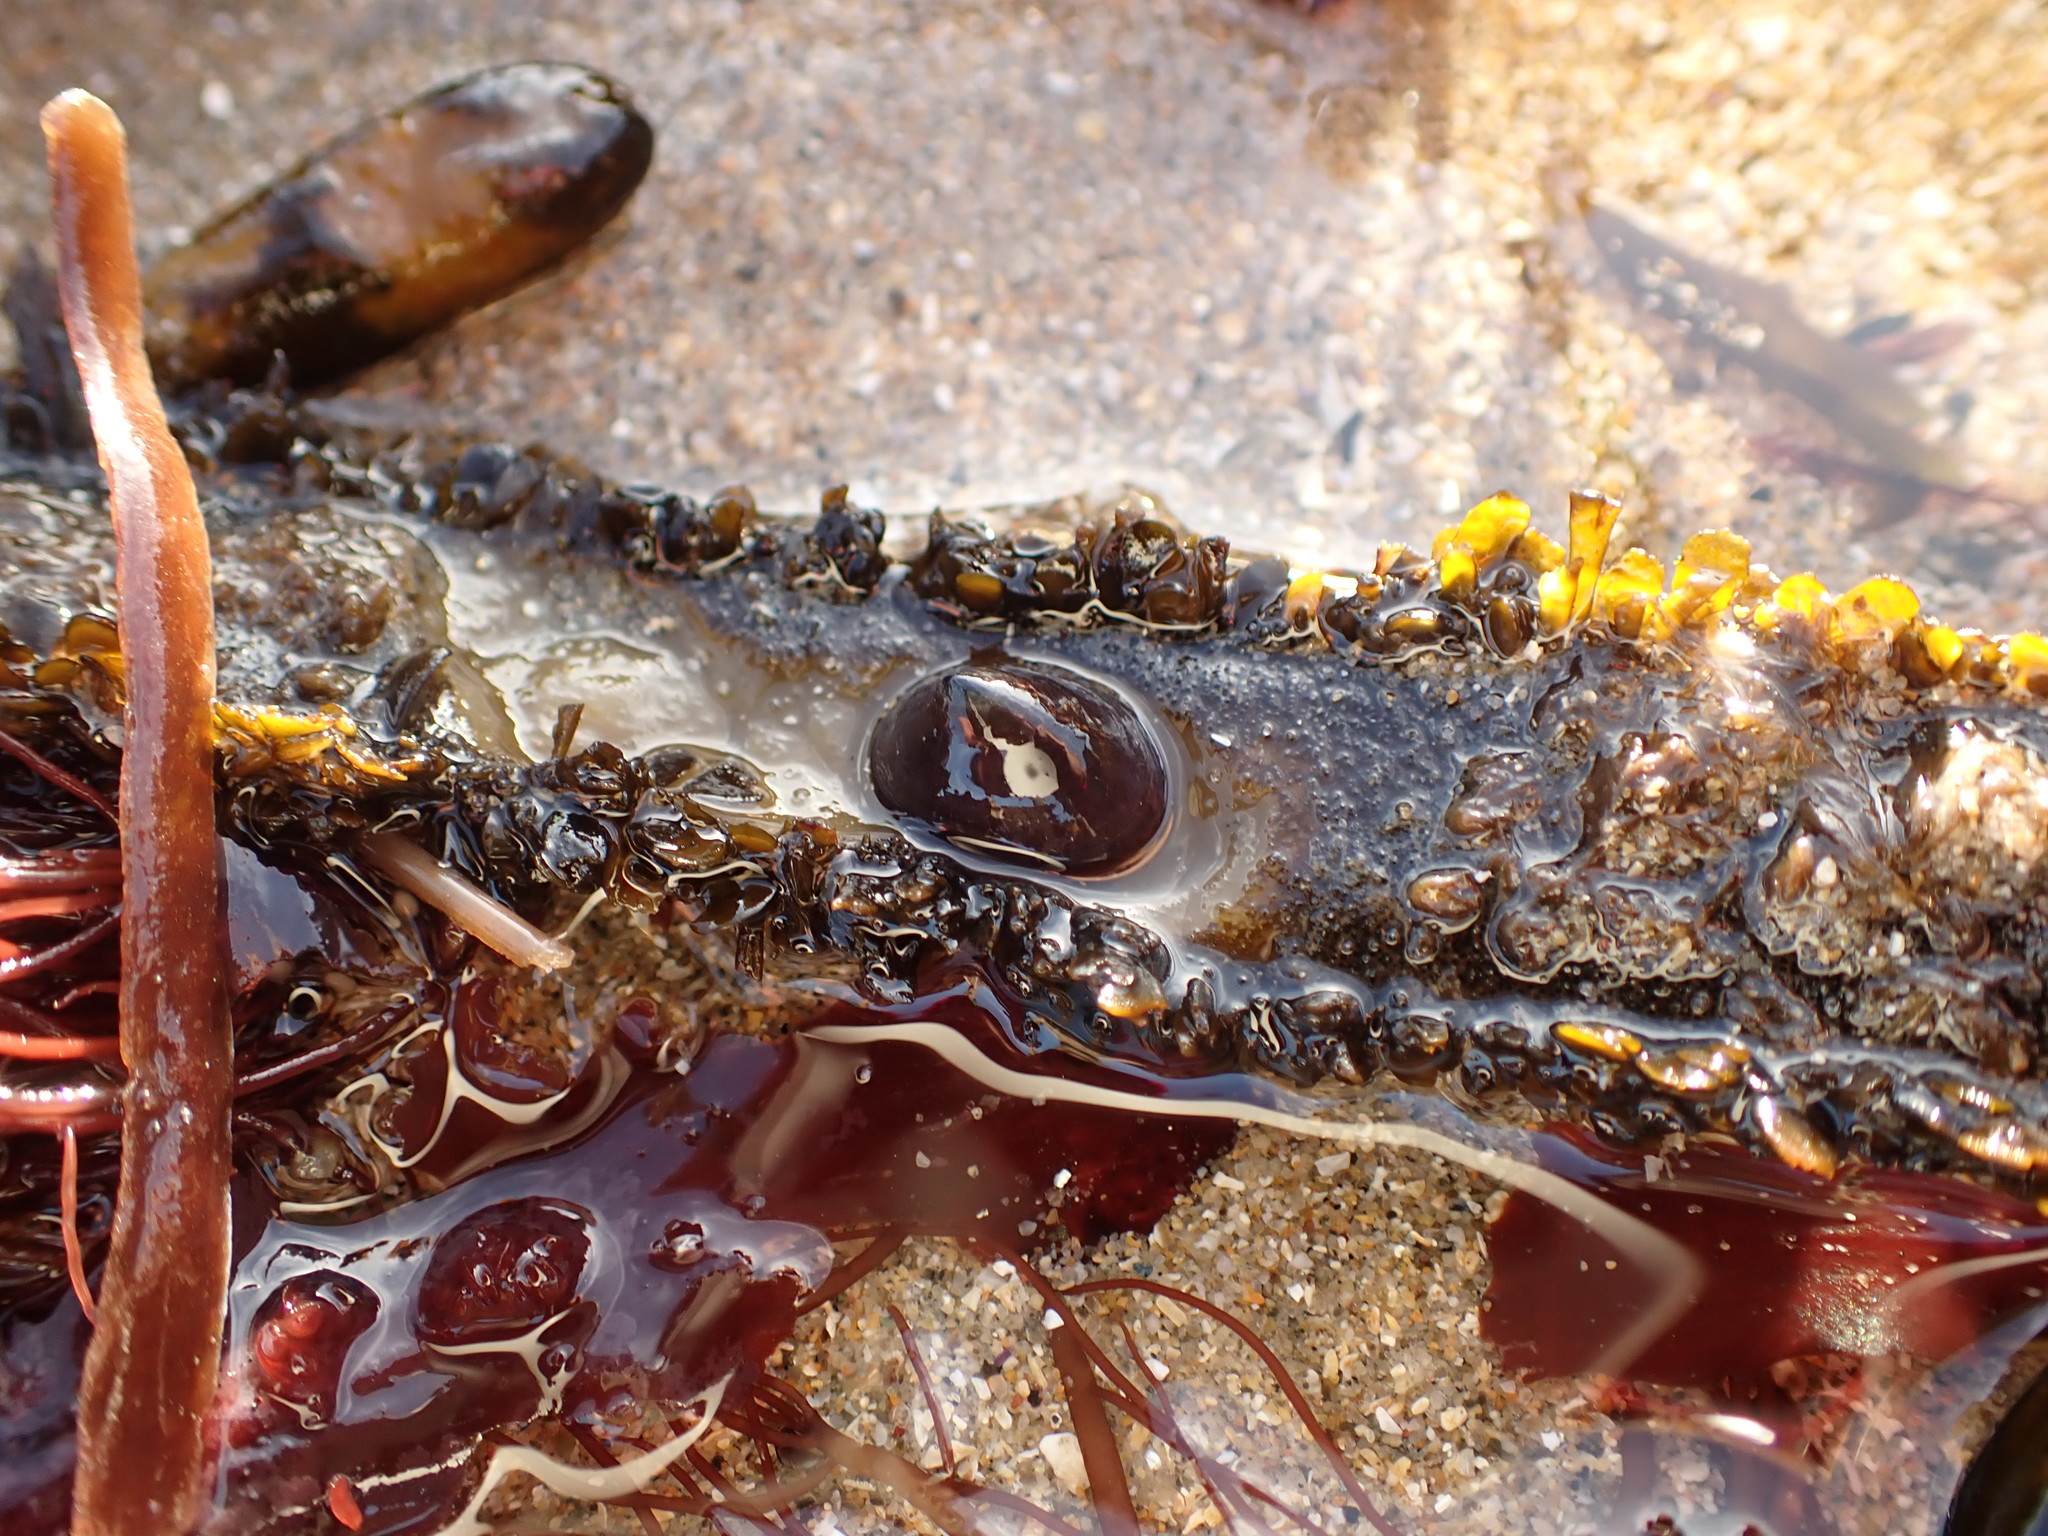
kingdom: Animalia
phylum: Mollusca
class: Gastropoda
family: Lottiidae
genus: Discurria
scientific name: Discurria insessa
